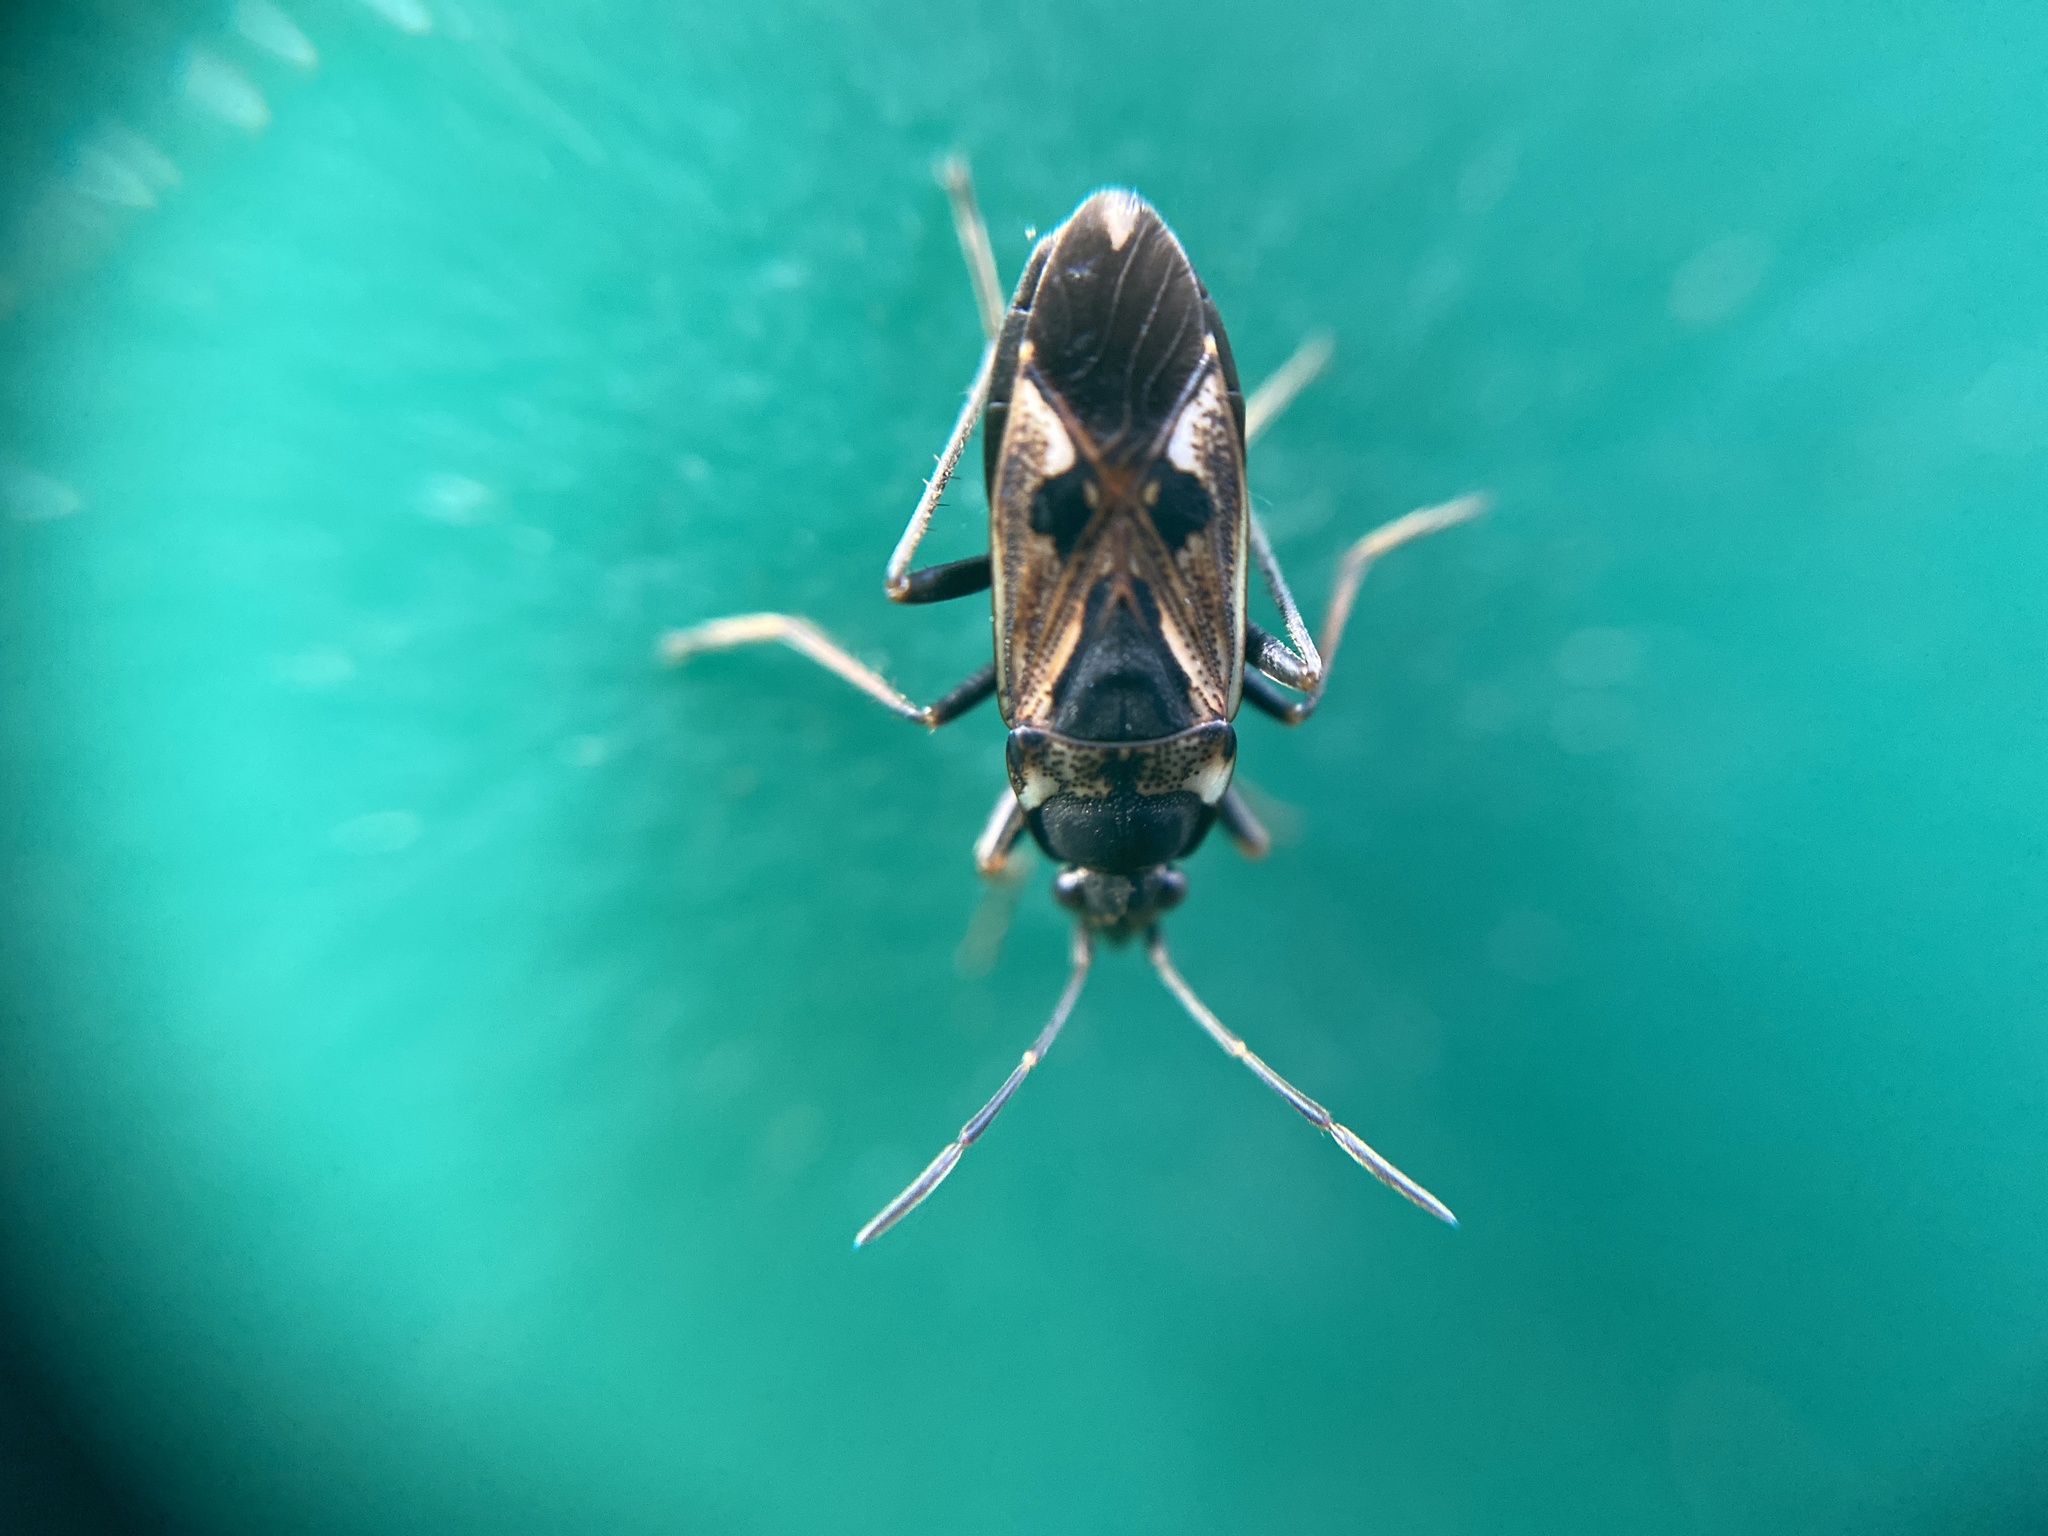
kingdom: Animalia
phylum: Arthropoda
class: Insecta
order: Hemiptera
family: Rhyparochromidae
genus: Rhyparochromus
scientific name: Rhyparochromus vulgaris
